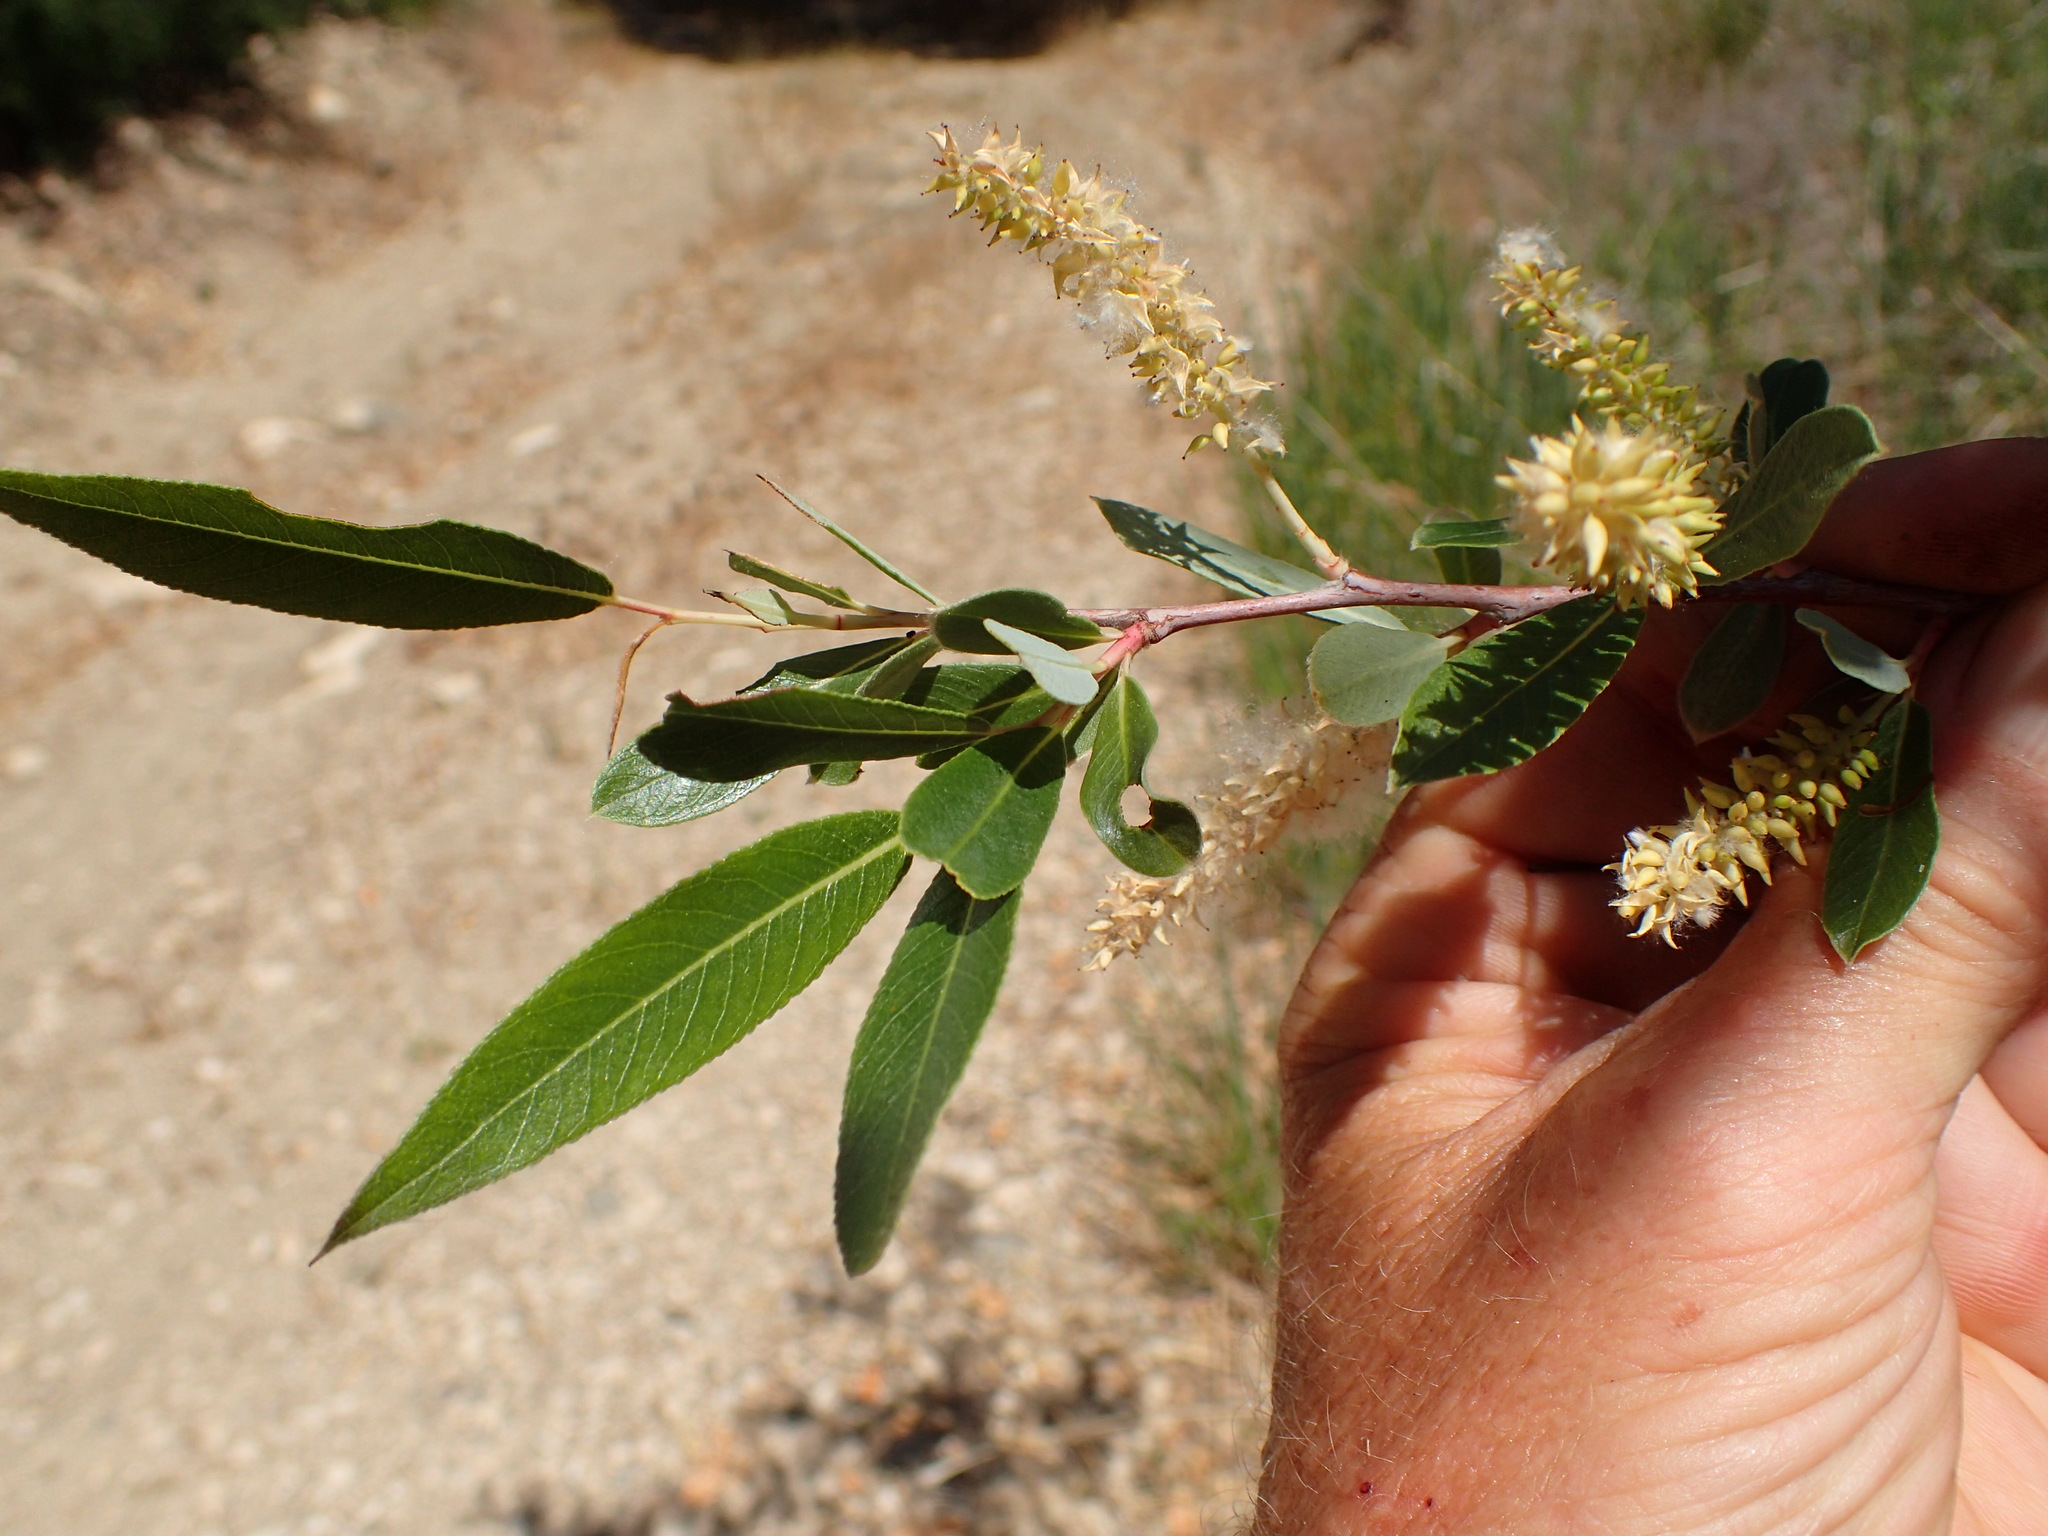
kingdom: Plantae
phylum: Tracheophyta
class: Magnoliopsida
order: Malpighiales
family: Salicaceae
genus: Salix
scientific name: Salix laevigata
